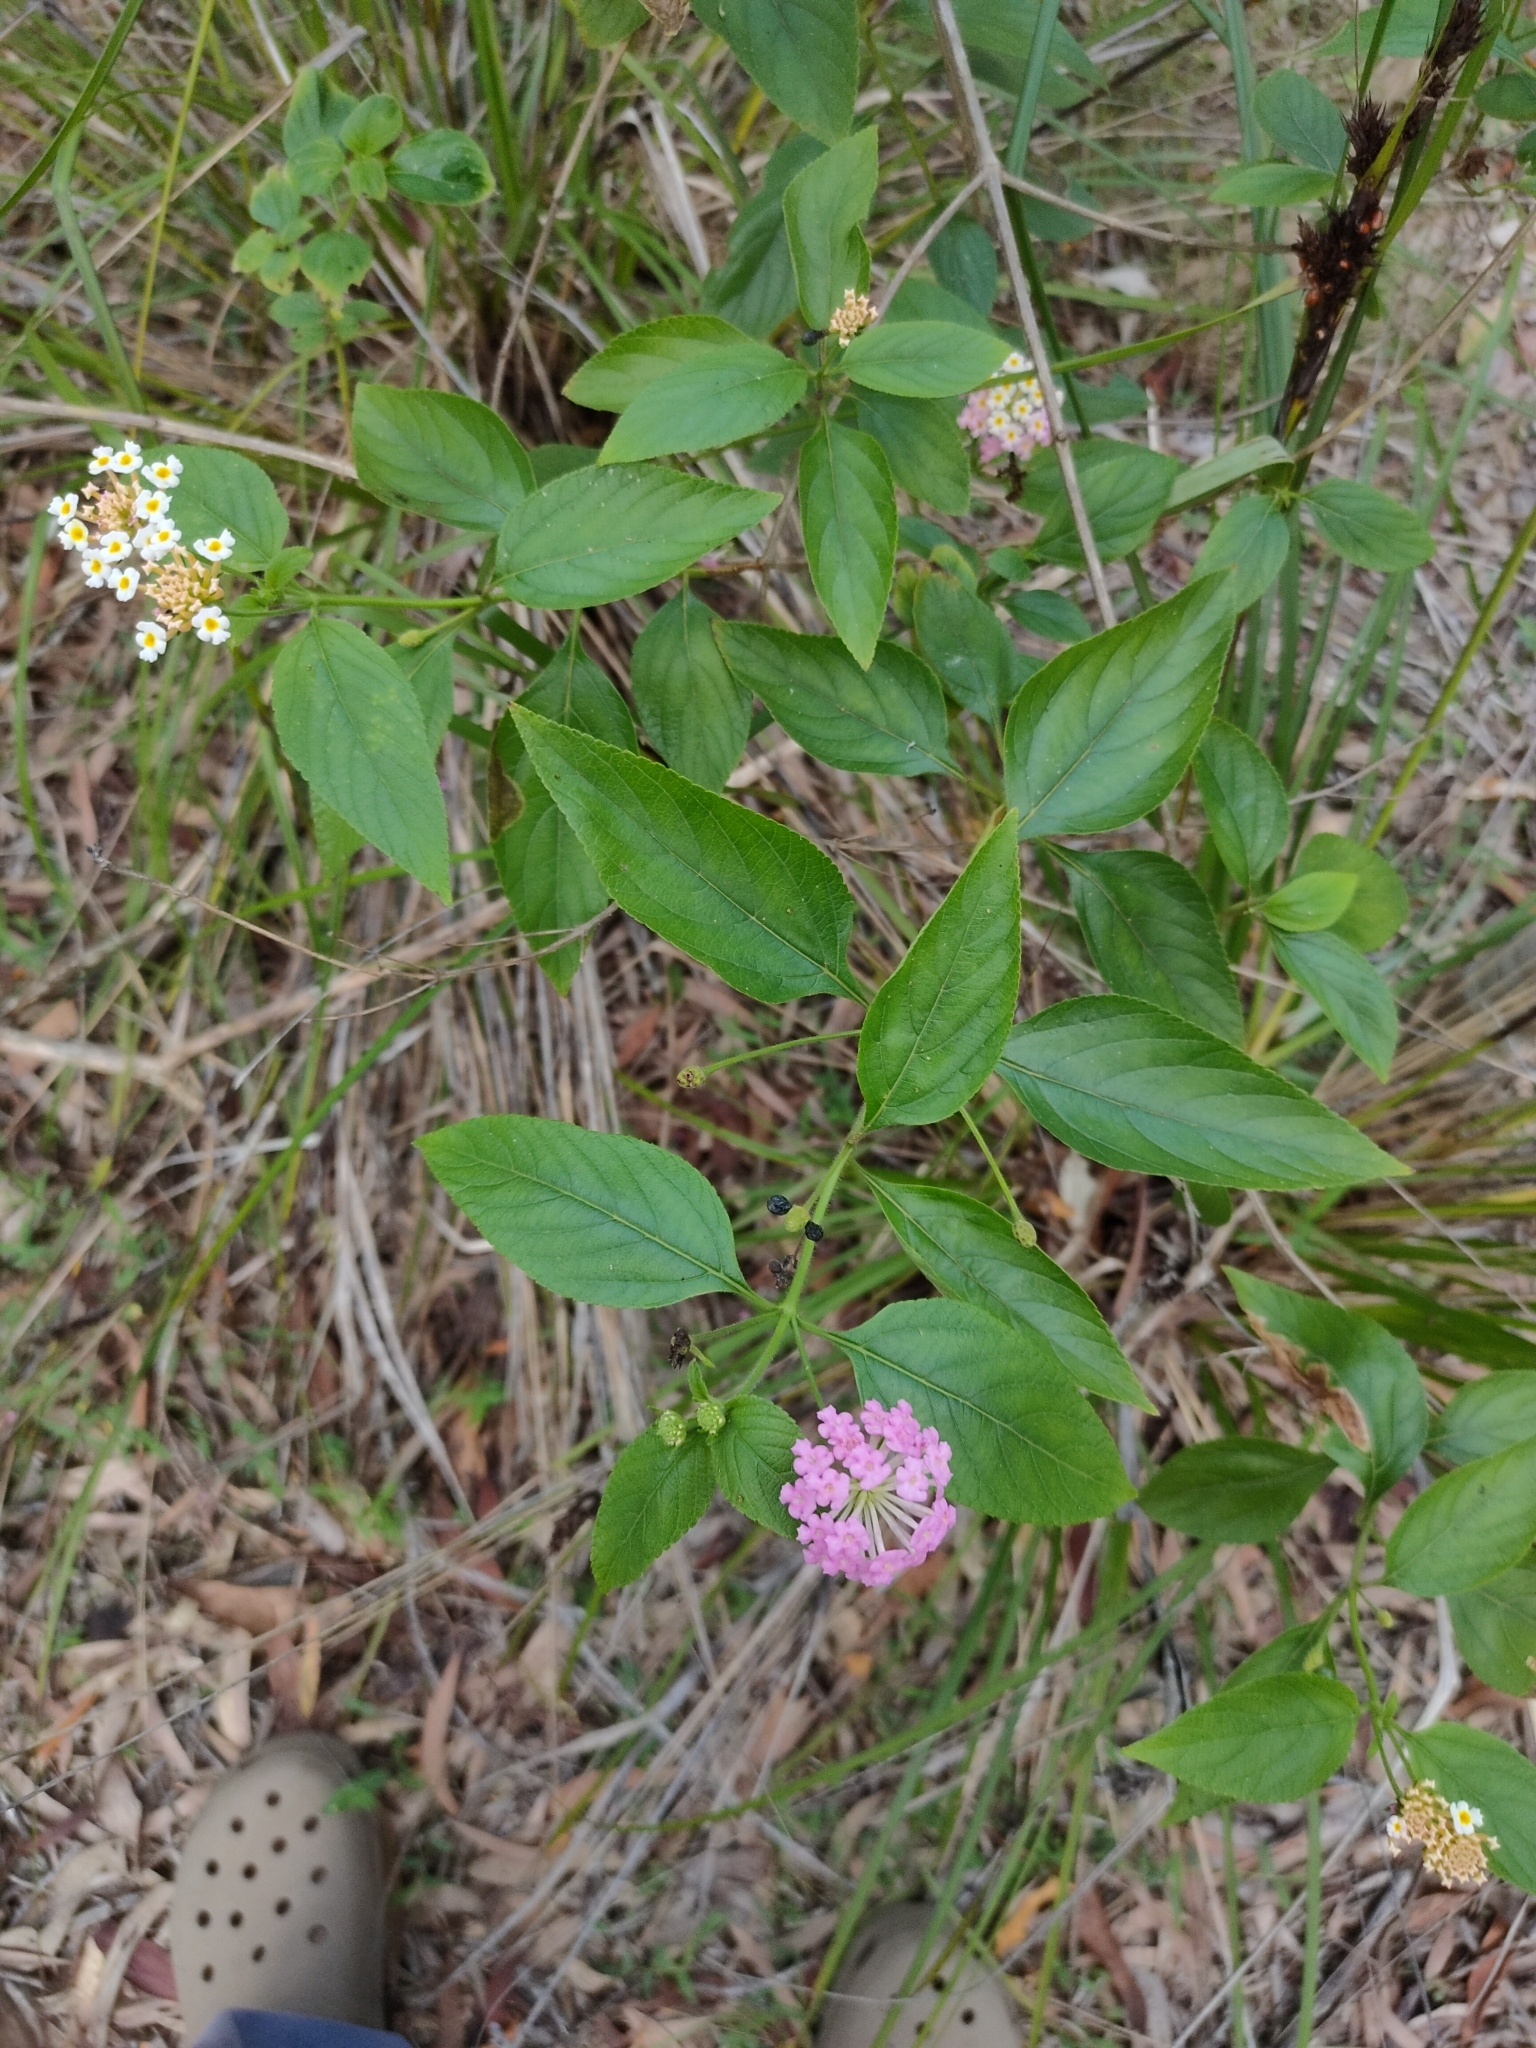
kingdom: Plantae
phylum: Tracheophyta
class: Magnoliopsida
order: Lamiales
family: Verbenaceae
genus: Lantana
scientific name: Lantana camara
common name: Lantana
